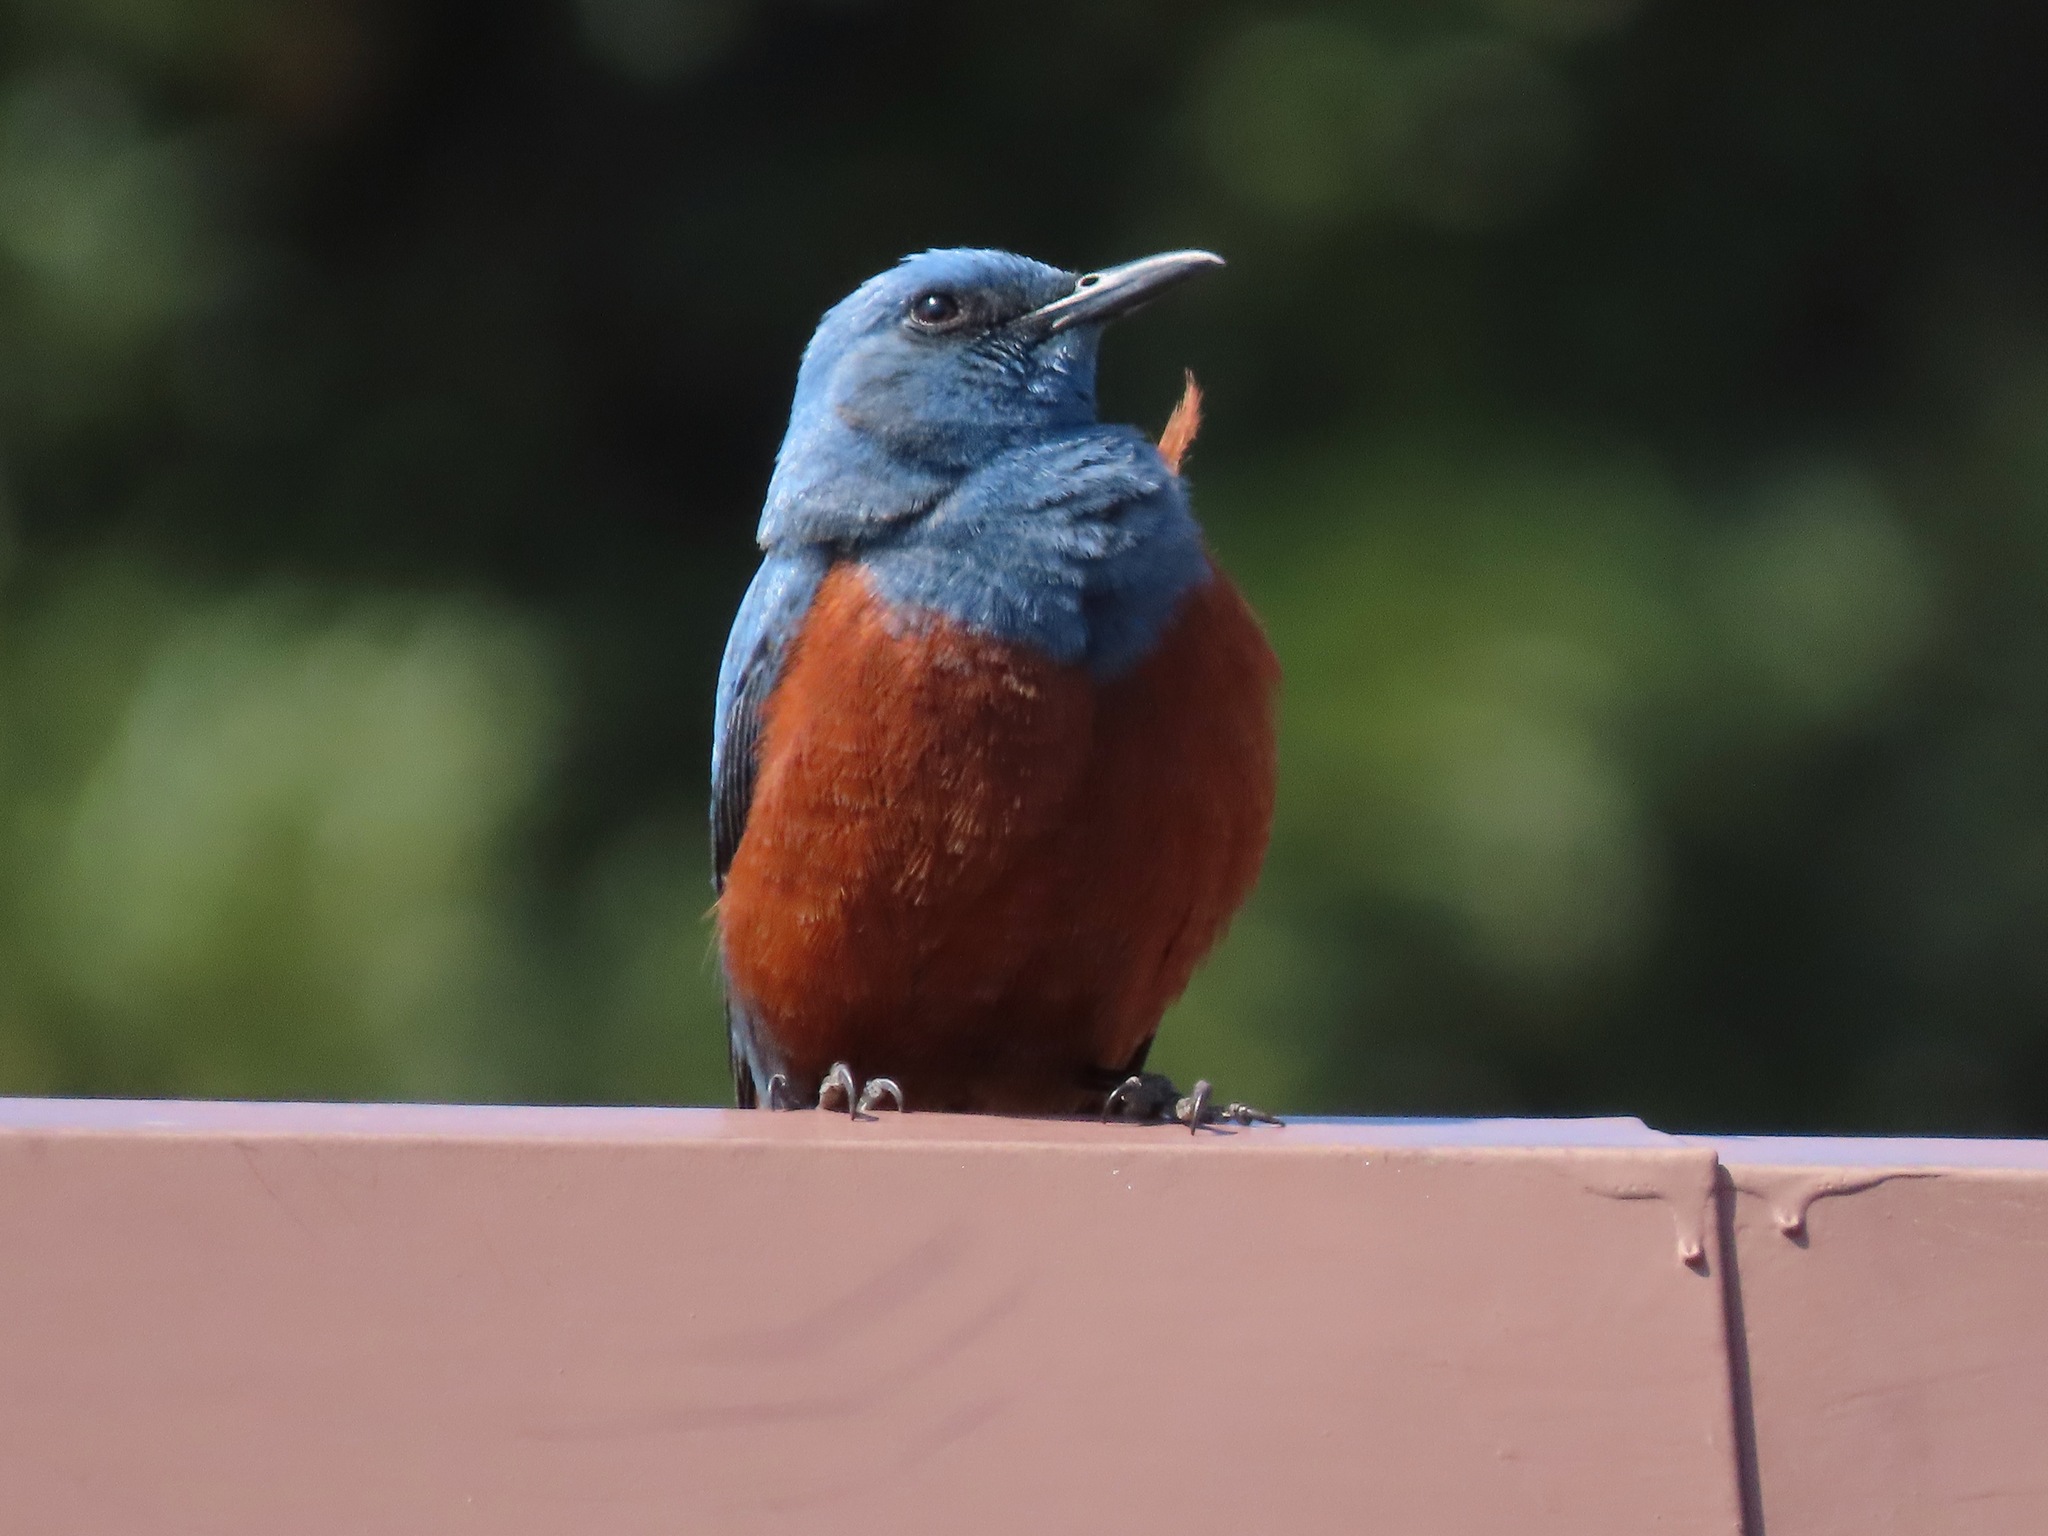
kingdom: Animalia
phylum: Chordata
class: Aves
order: Passeriformes
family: Muscicapidae
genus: Monticola
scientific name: Monticola solitarius
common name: Blue rock thrush
